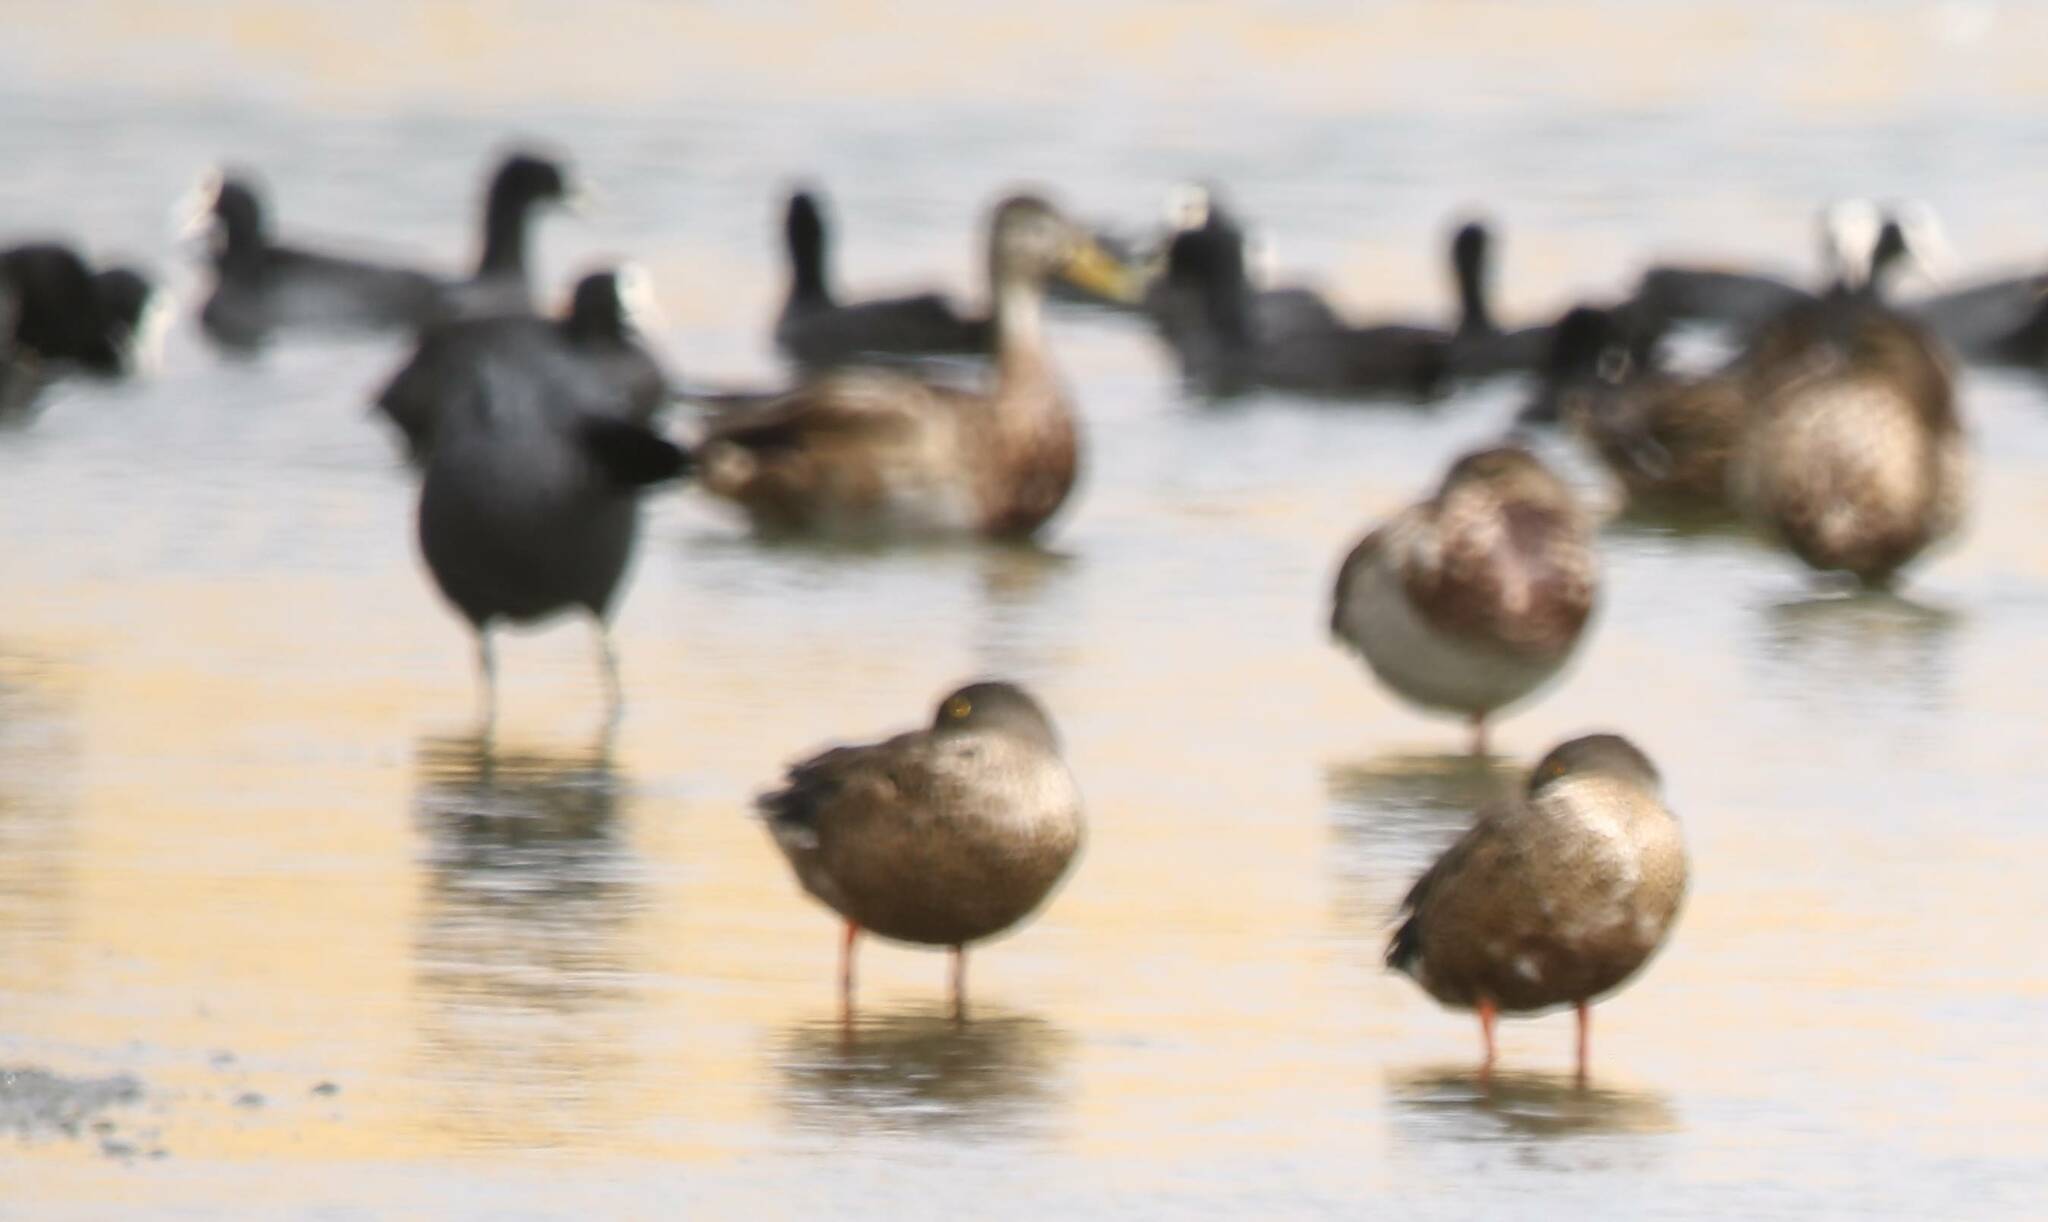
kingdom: Animalia
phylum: Chordata
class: Aves
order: Anseriformes
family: Anatidae
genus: Spatula
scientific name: Spatula clypeata
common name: Northern shoveler
